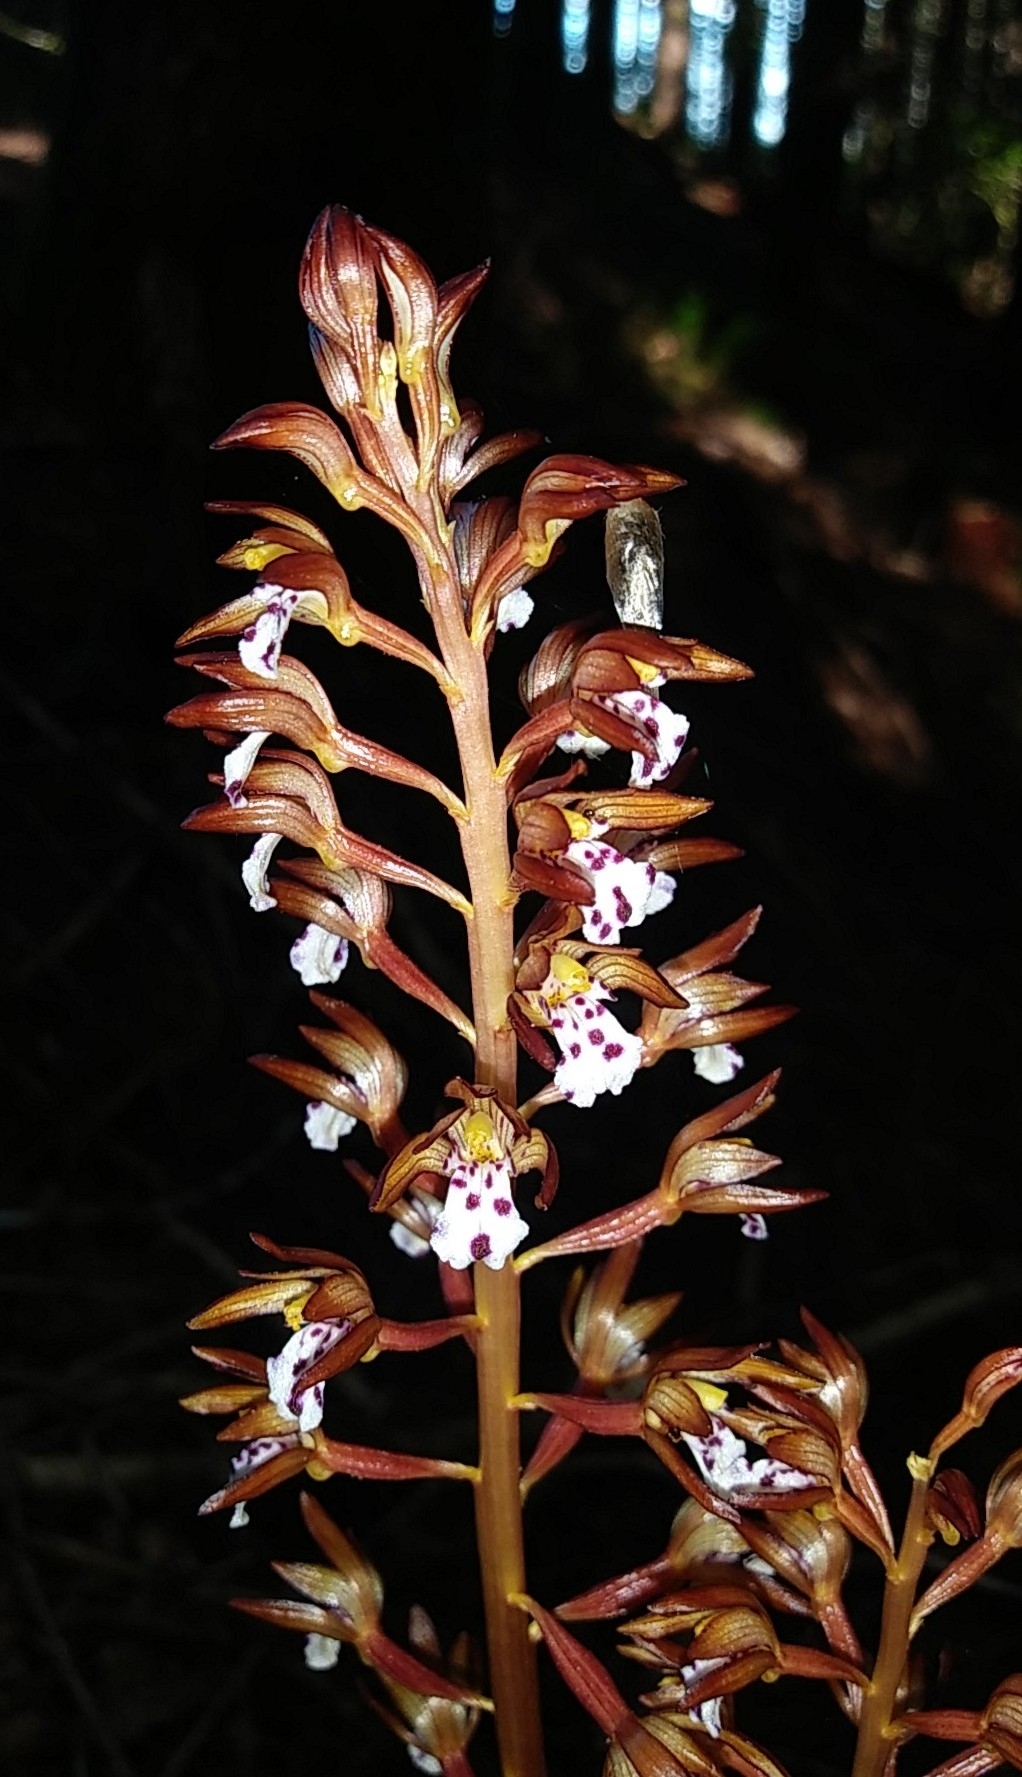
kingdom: Plantae
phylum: Tracheophyta
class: Liliopsida
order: Asparagales
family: Orchidaceae
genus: Corallorhiza
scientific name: Corallorhiza maculata
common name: Spotted coralroot
